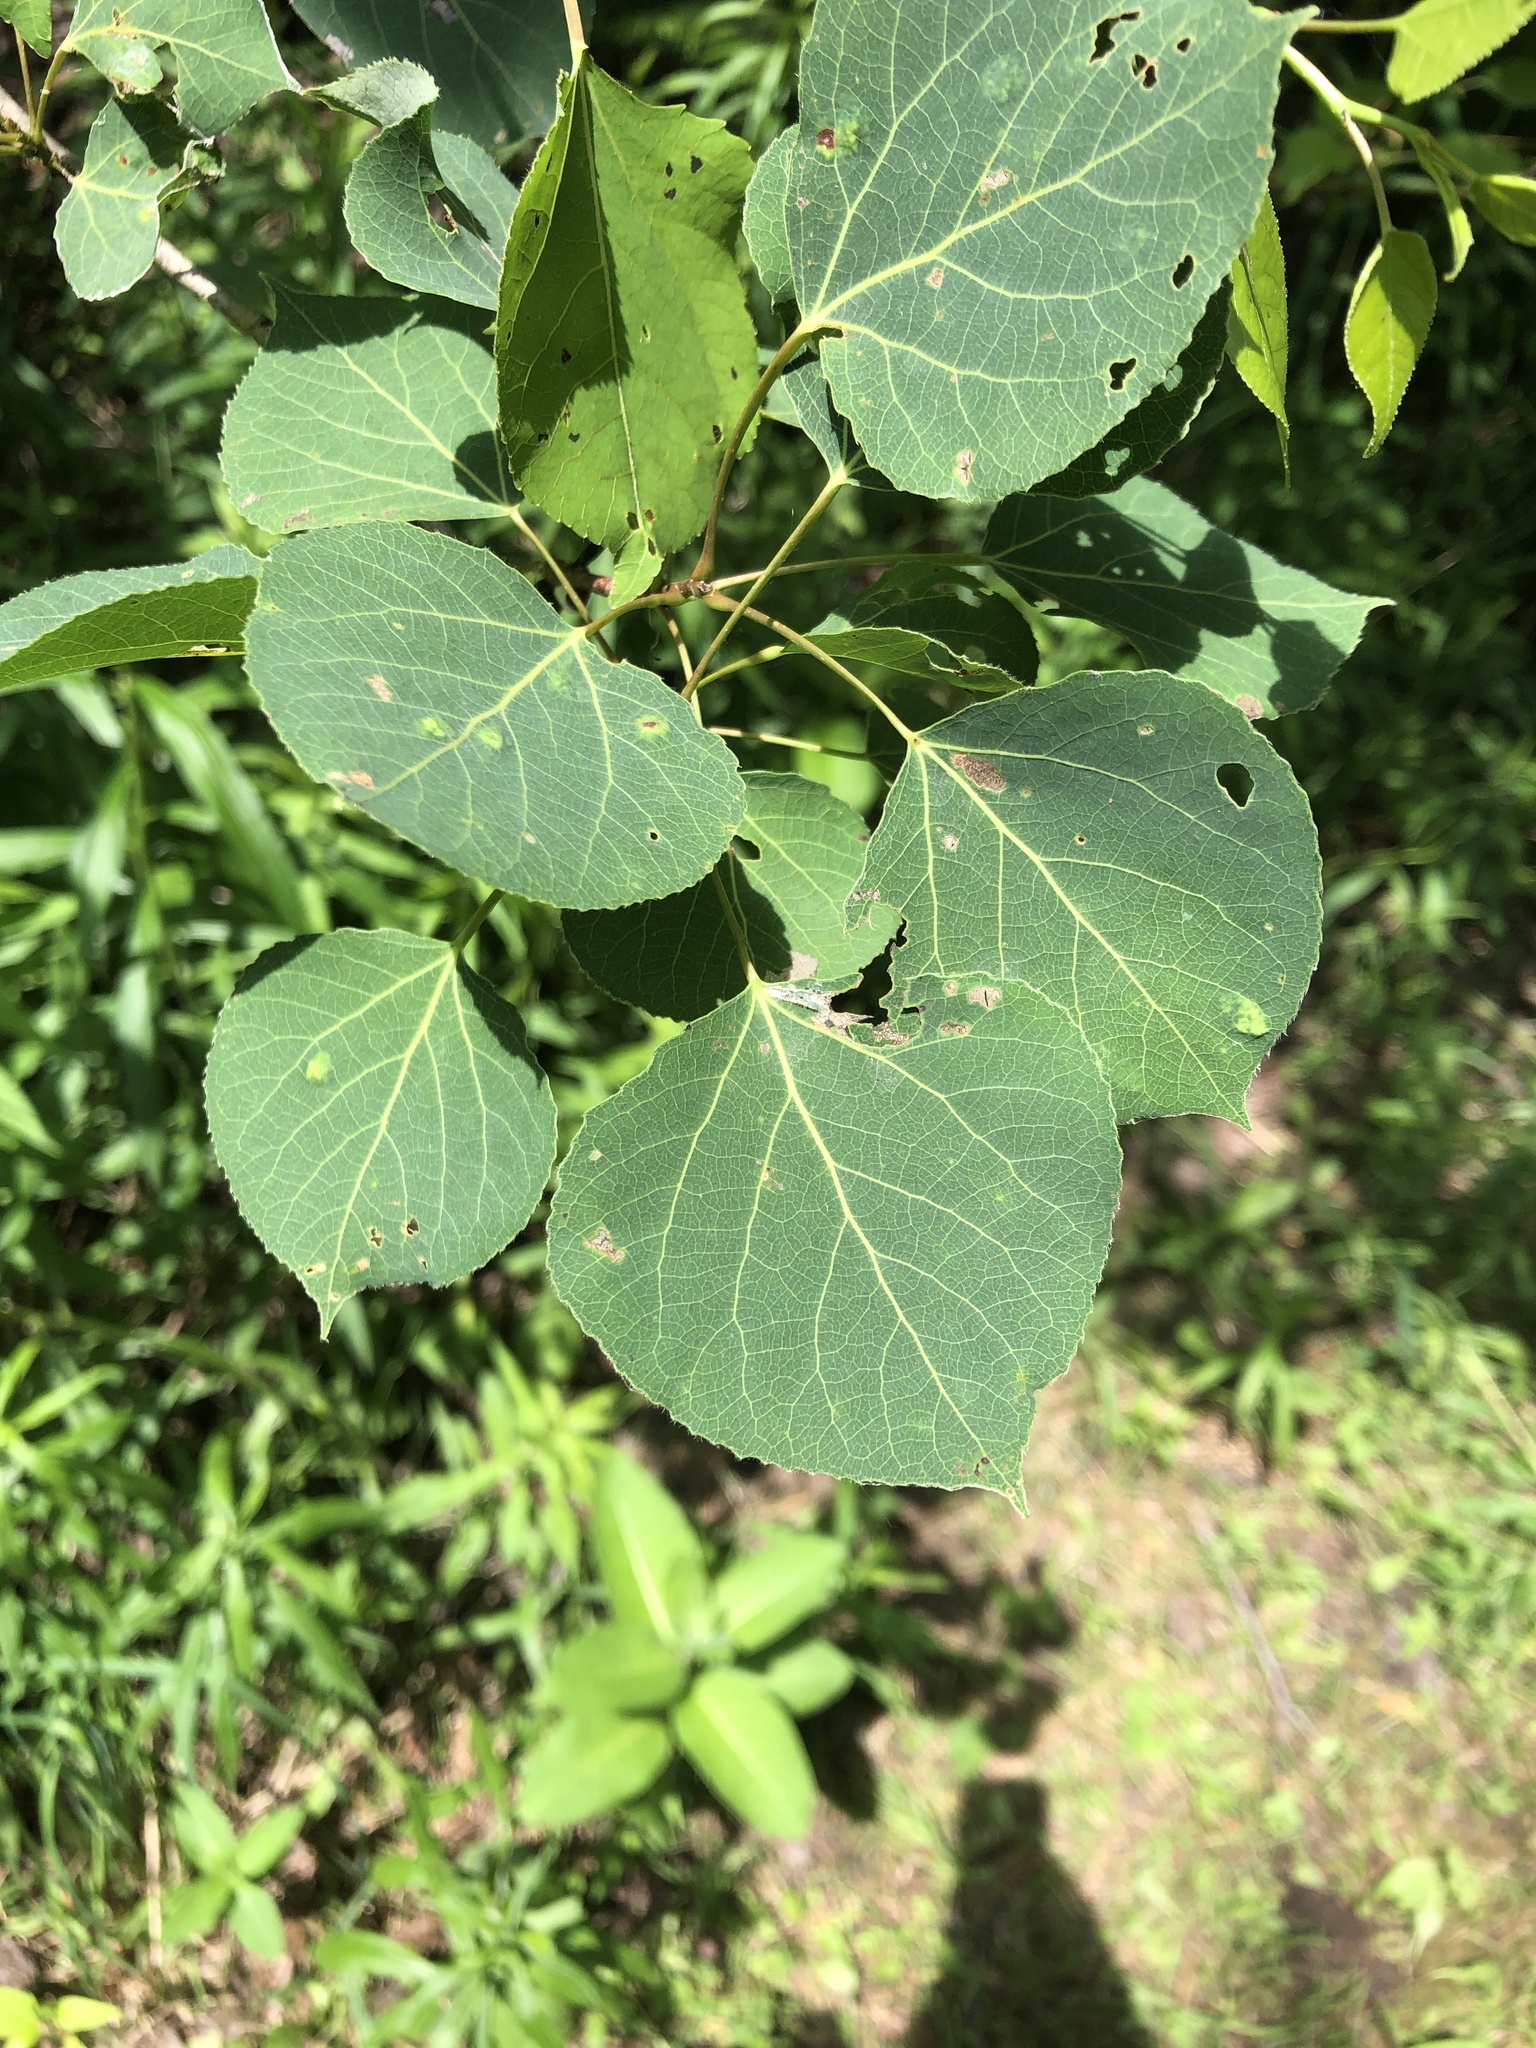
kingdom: Plantae
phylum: Tracheophyta
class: Magnoliopsida
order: Malpighiales
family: Salicaceae
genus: Populus
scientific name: Populus tremuloides
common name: Quaking aspen
